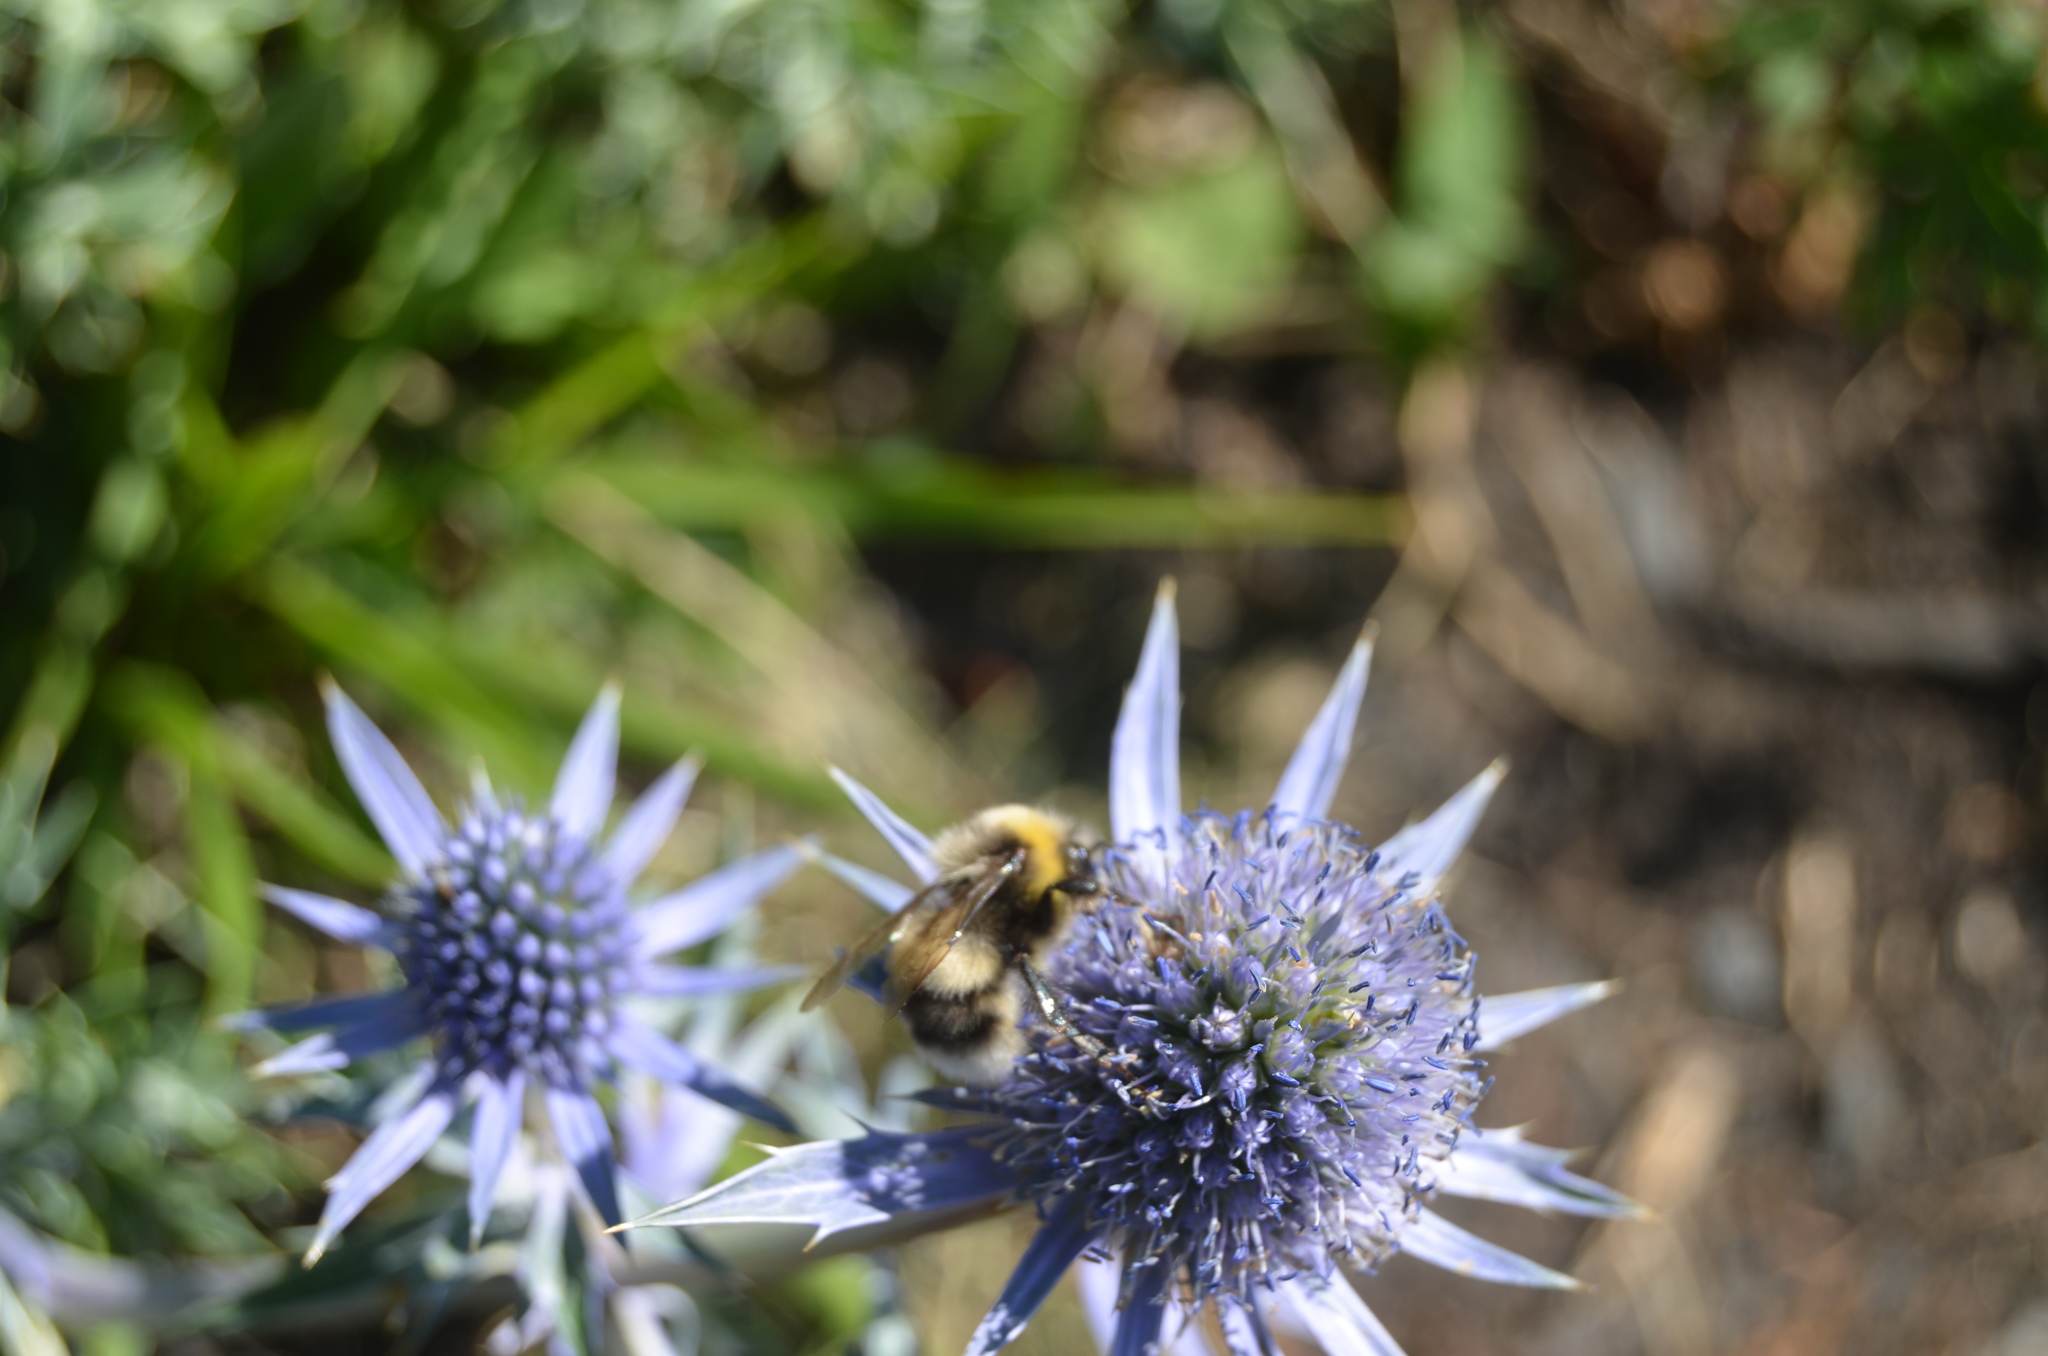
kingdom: Plantae
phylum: Tracheophyta
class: Magnoliopsida
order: Apiales
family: Apiaceae
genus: Eryngium
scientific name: Eryngium bourgatii
